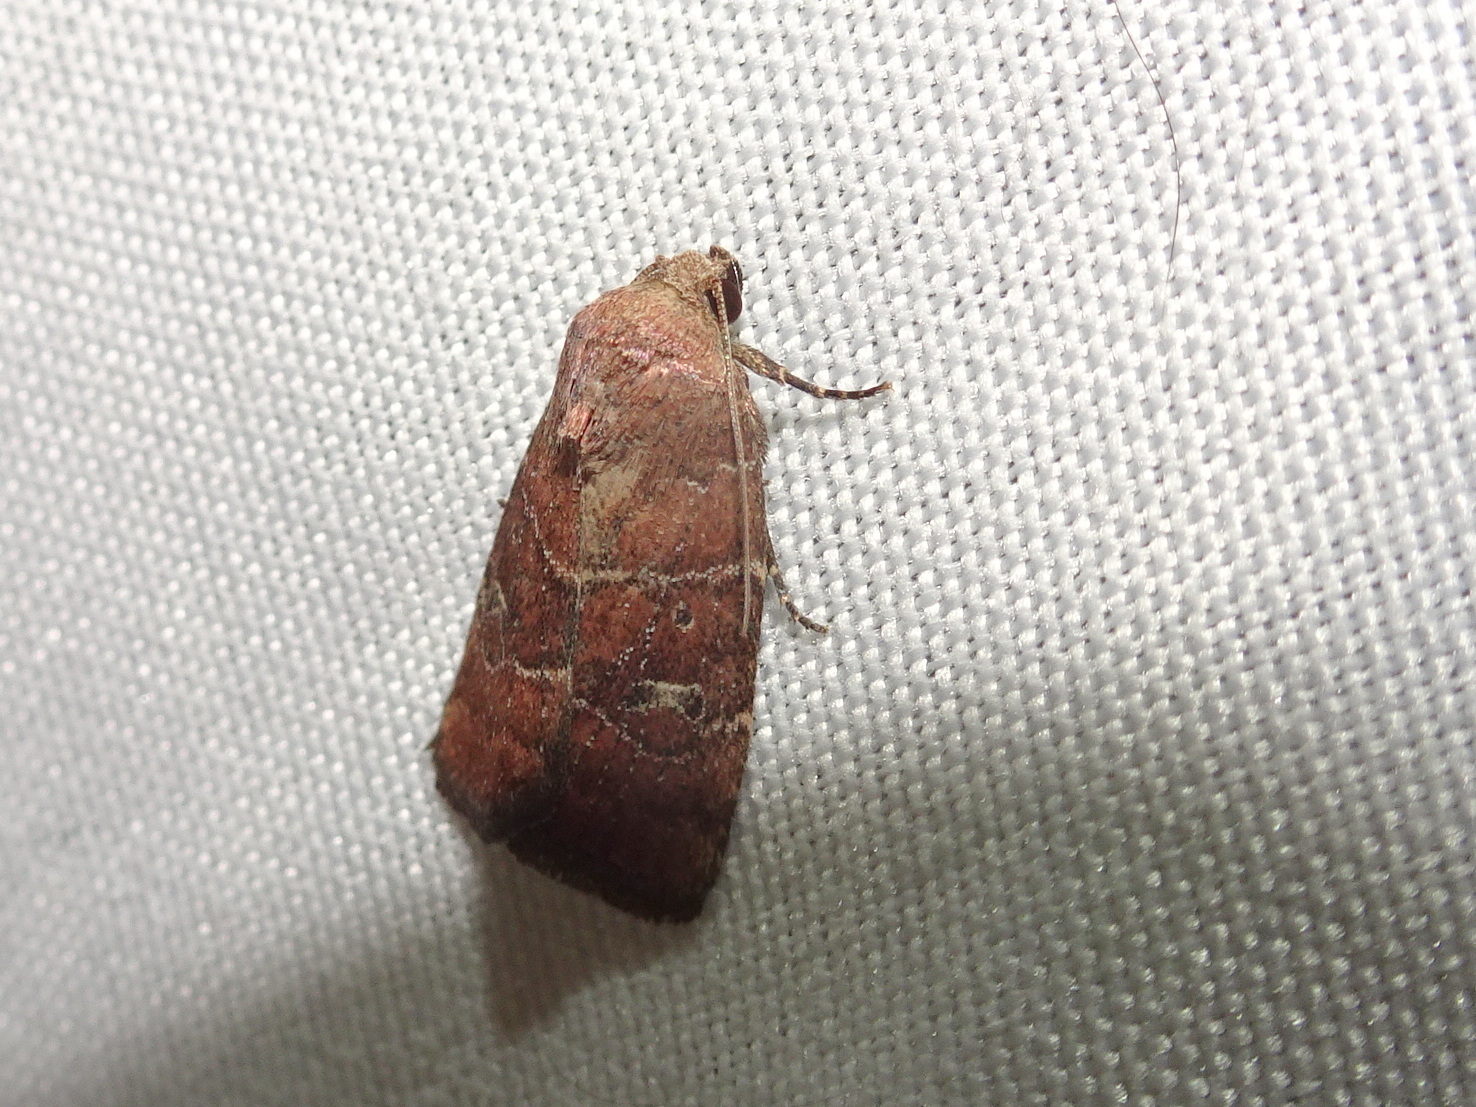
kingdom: Animalia
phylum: Arthropoda
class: Insecta
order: Lepidoptera
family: Noctuidae
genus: Elaphria
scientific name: Elaphria grata
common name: Grateful midget moth
